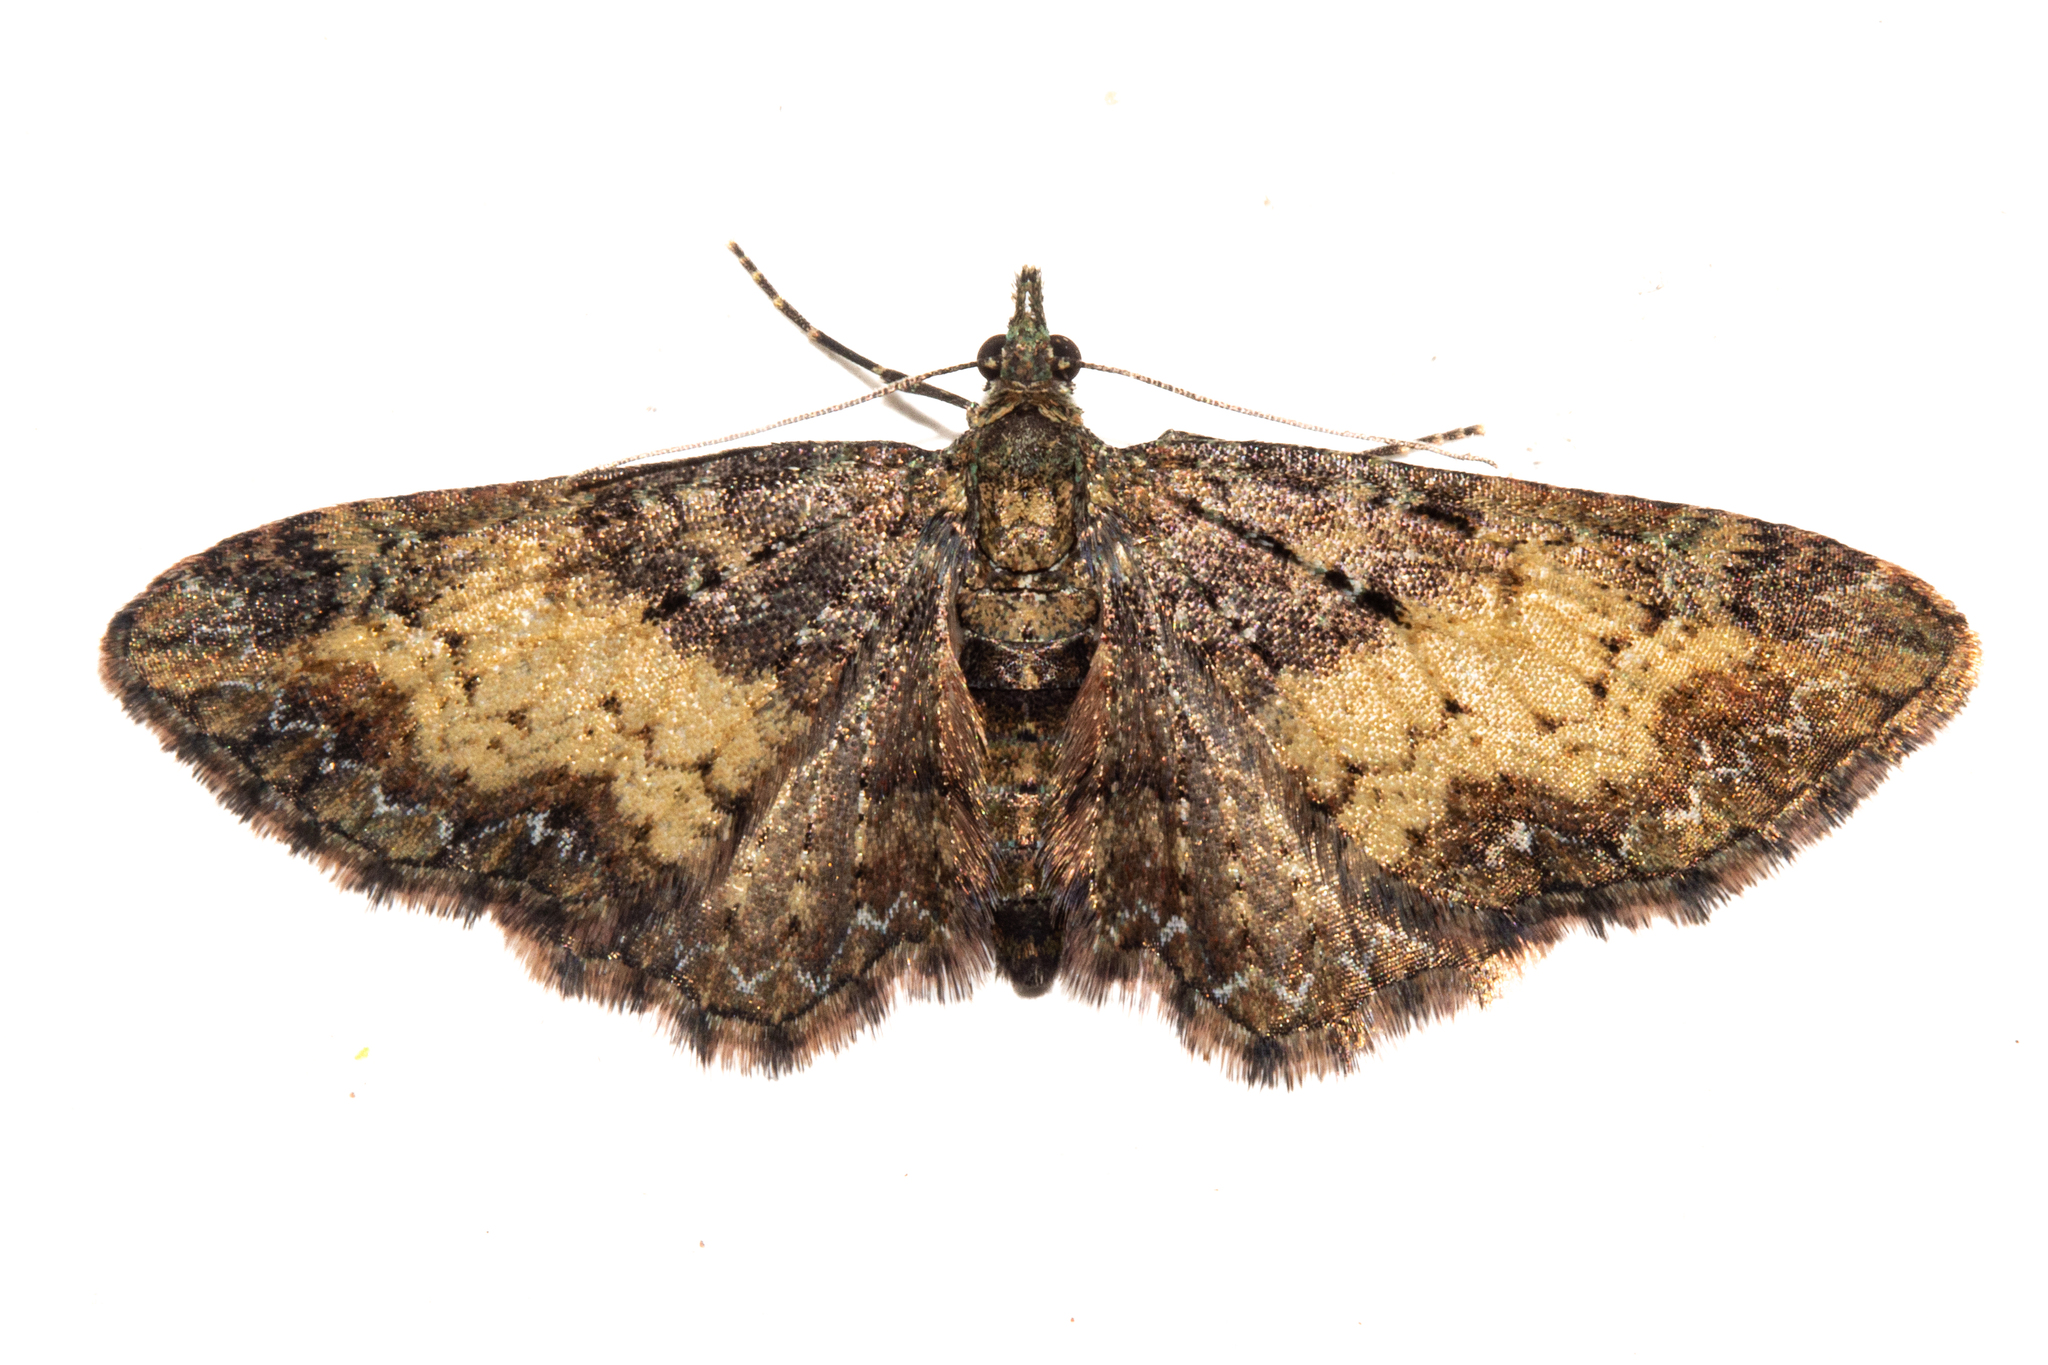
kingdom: Animalia
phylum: Arthropoda
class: Insecta
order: Lepidoptera
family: Geometridae
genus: Pasiphila
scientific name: Pasiphila lunata
